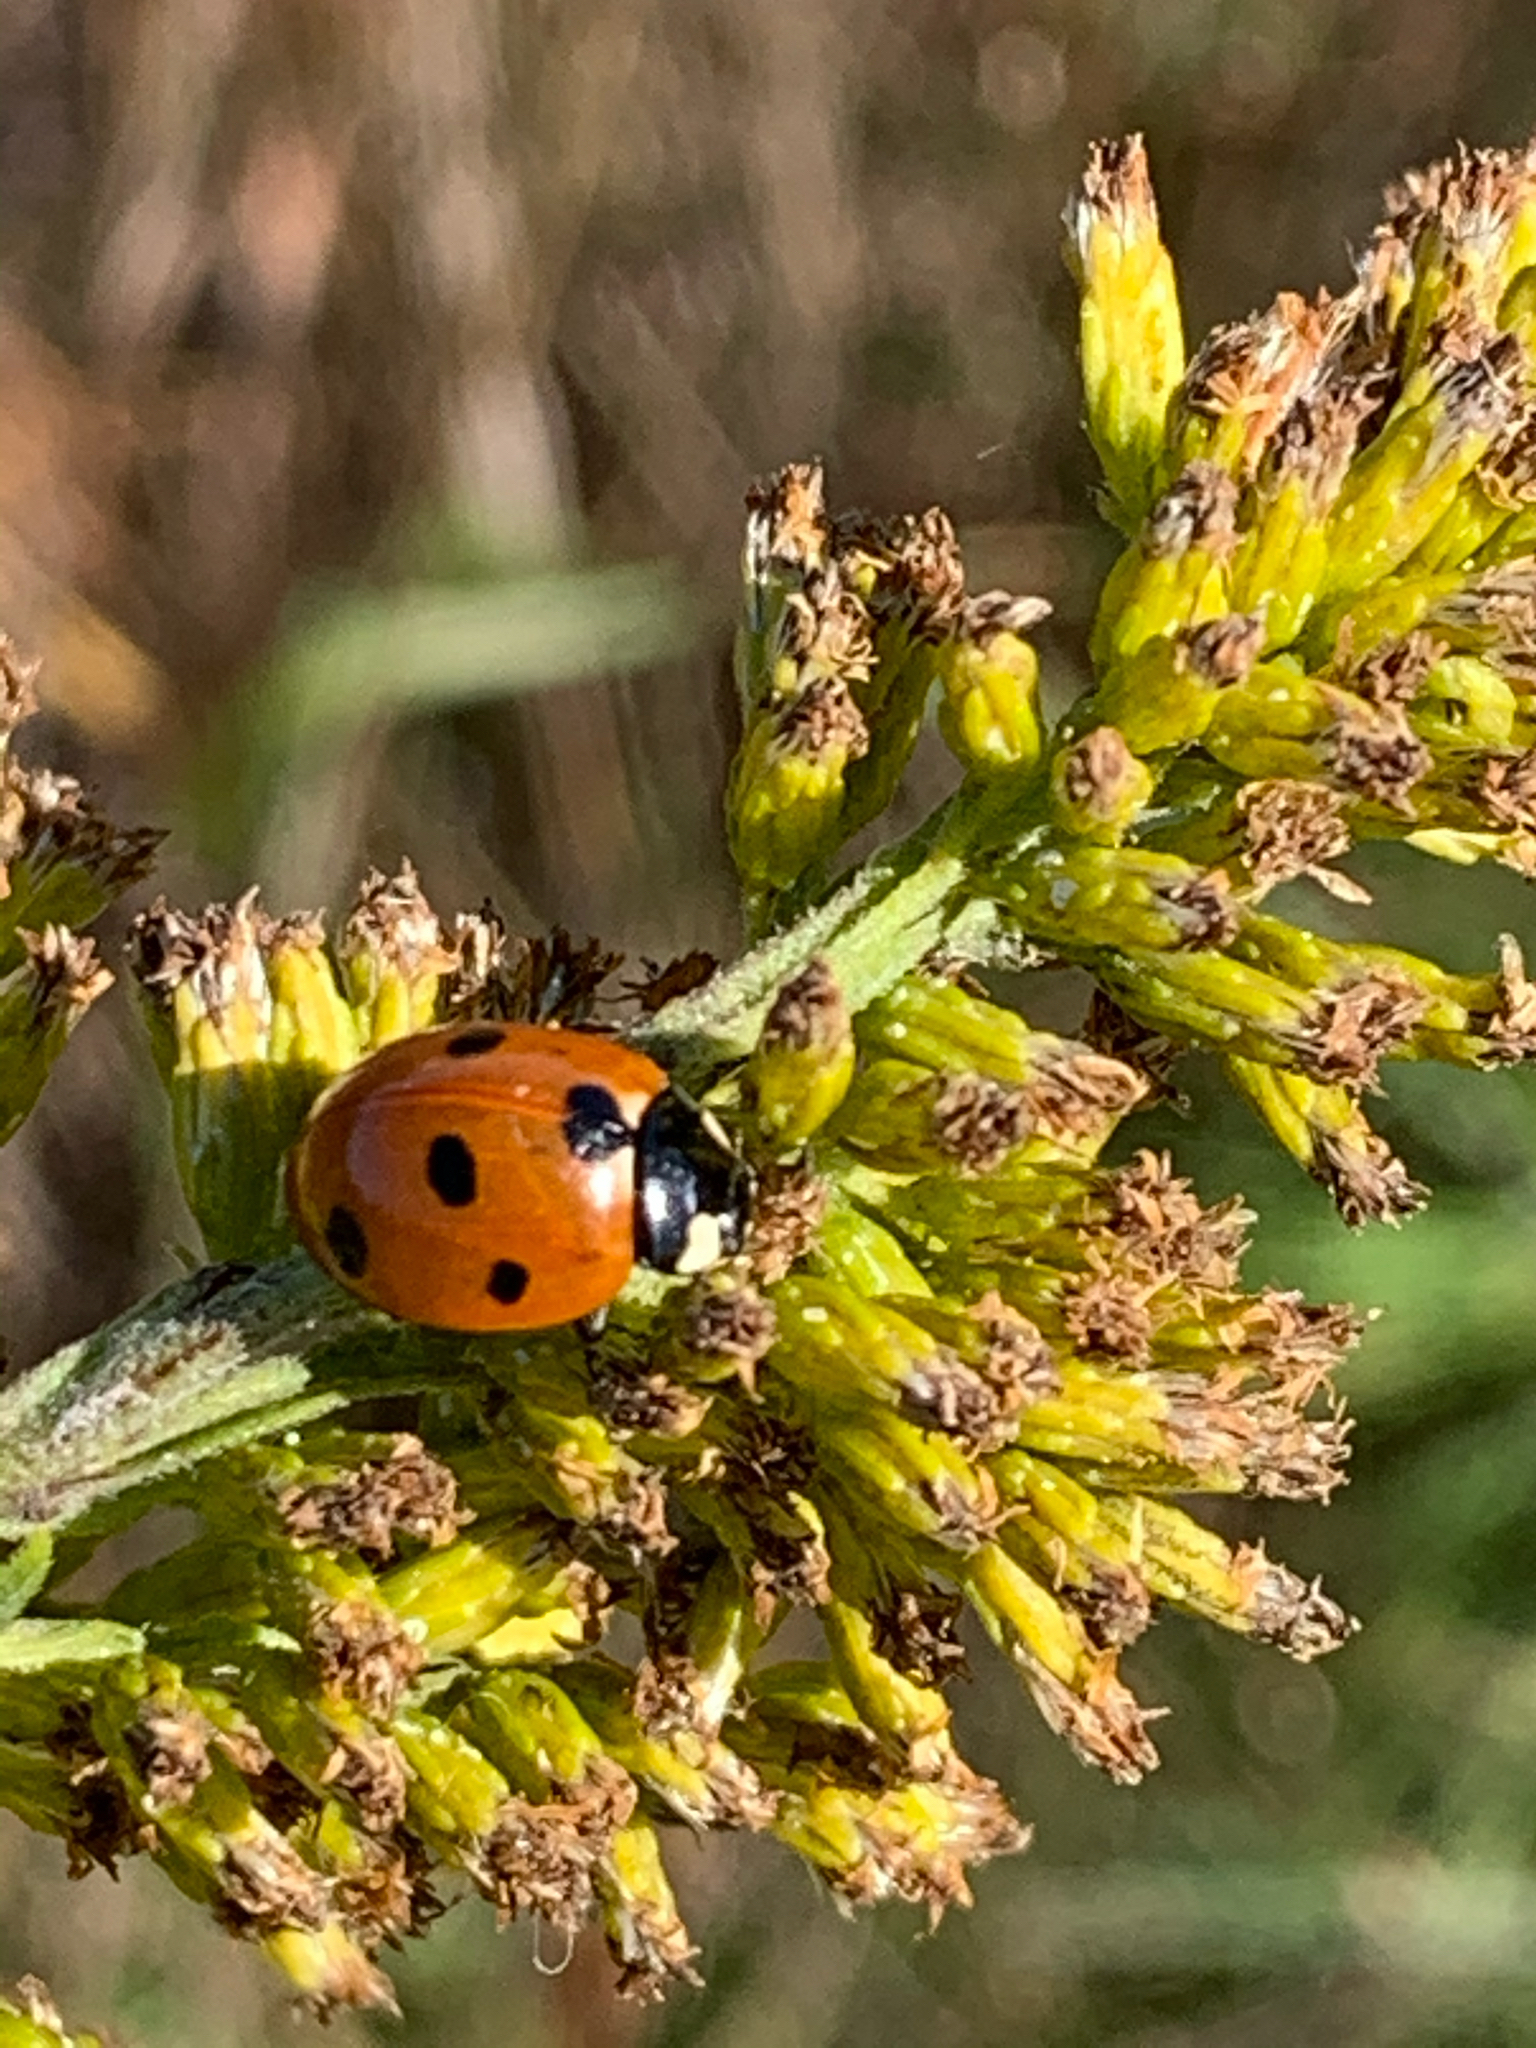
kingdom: Animalia
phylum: Arthropoda
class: Insecta
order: Coleoptera
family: Coccinellidae
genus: Coccinella
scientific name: Coccinella septempunctata
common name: Sevenspotted lady beetle
